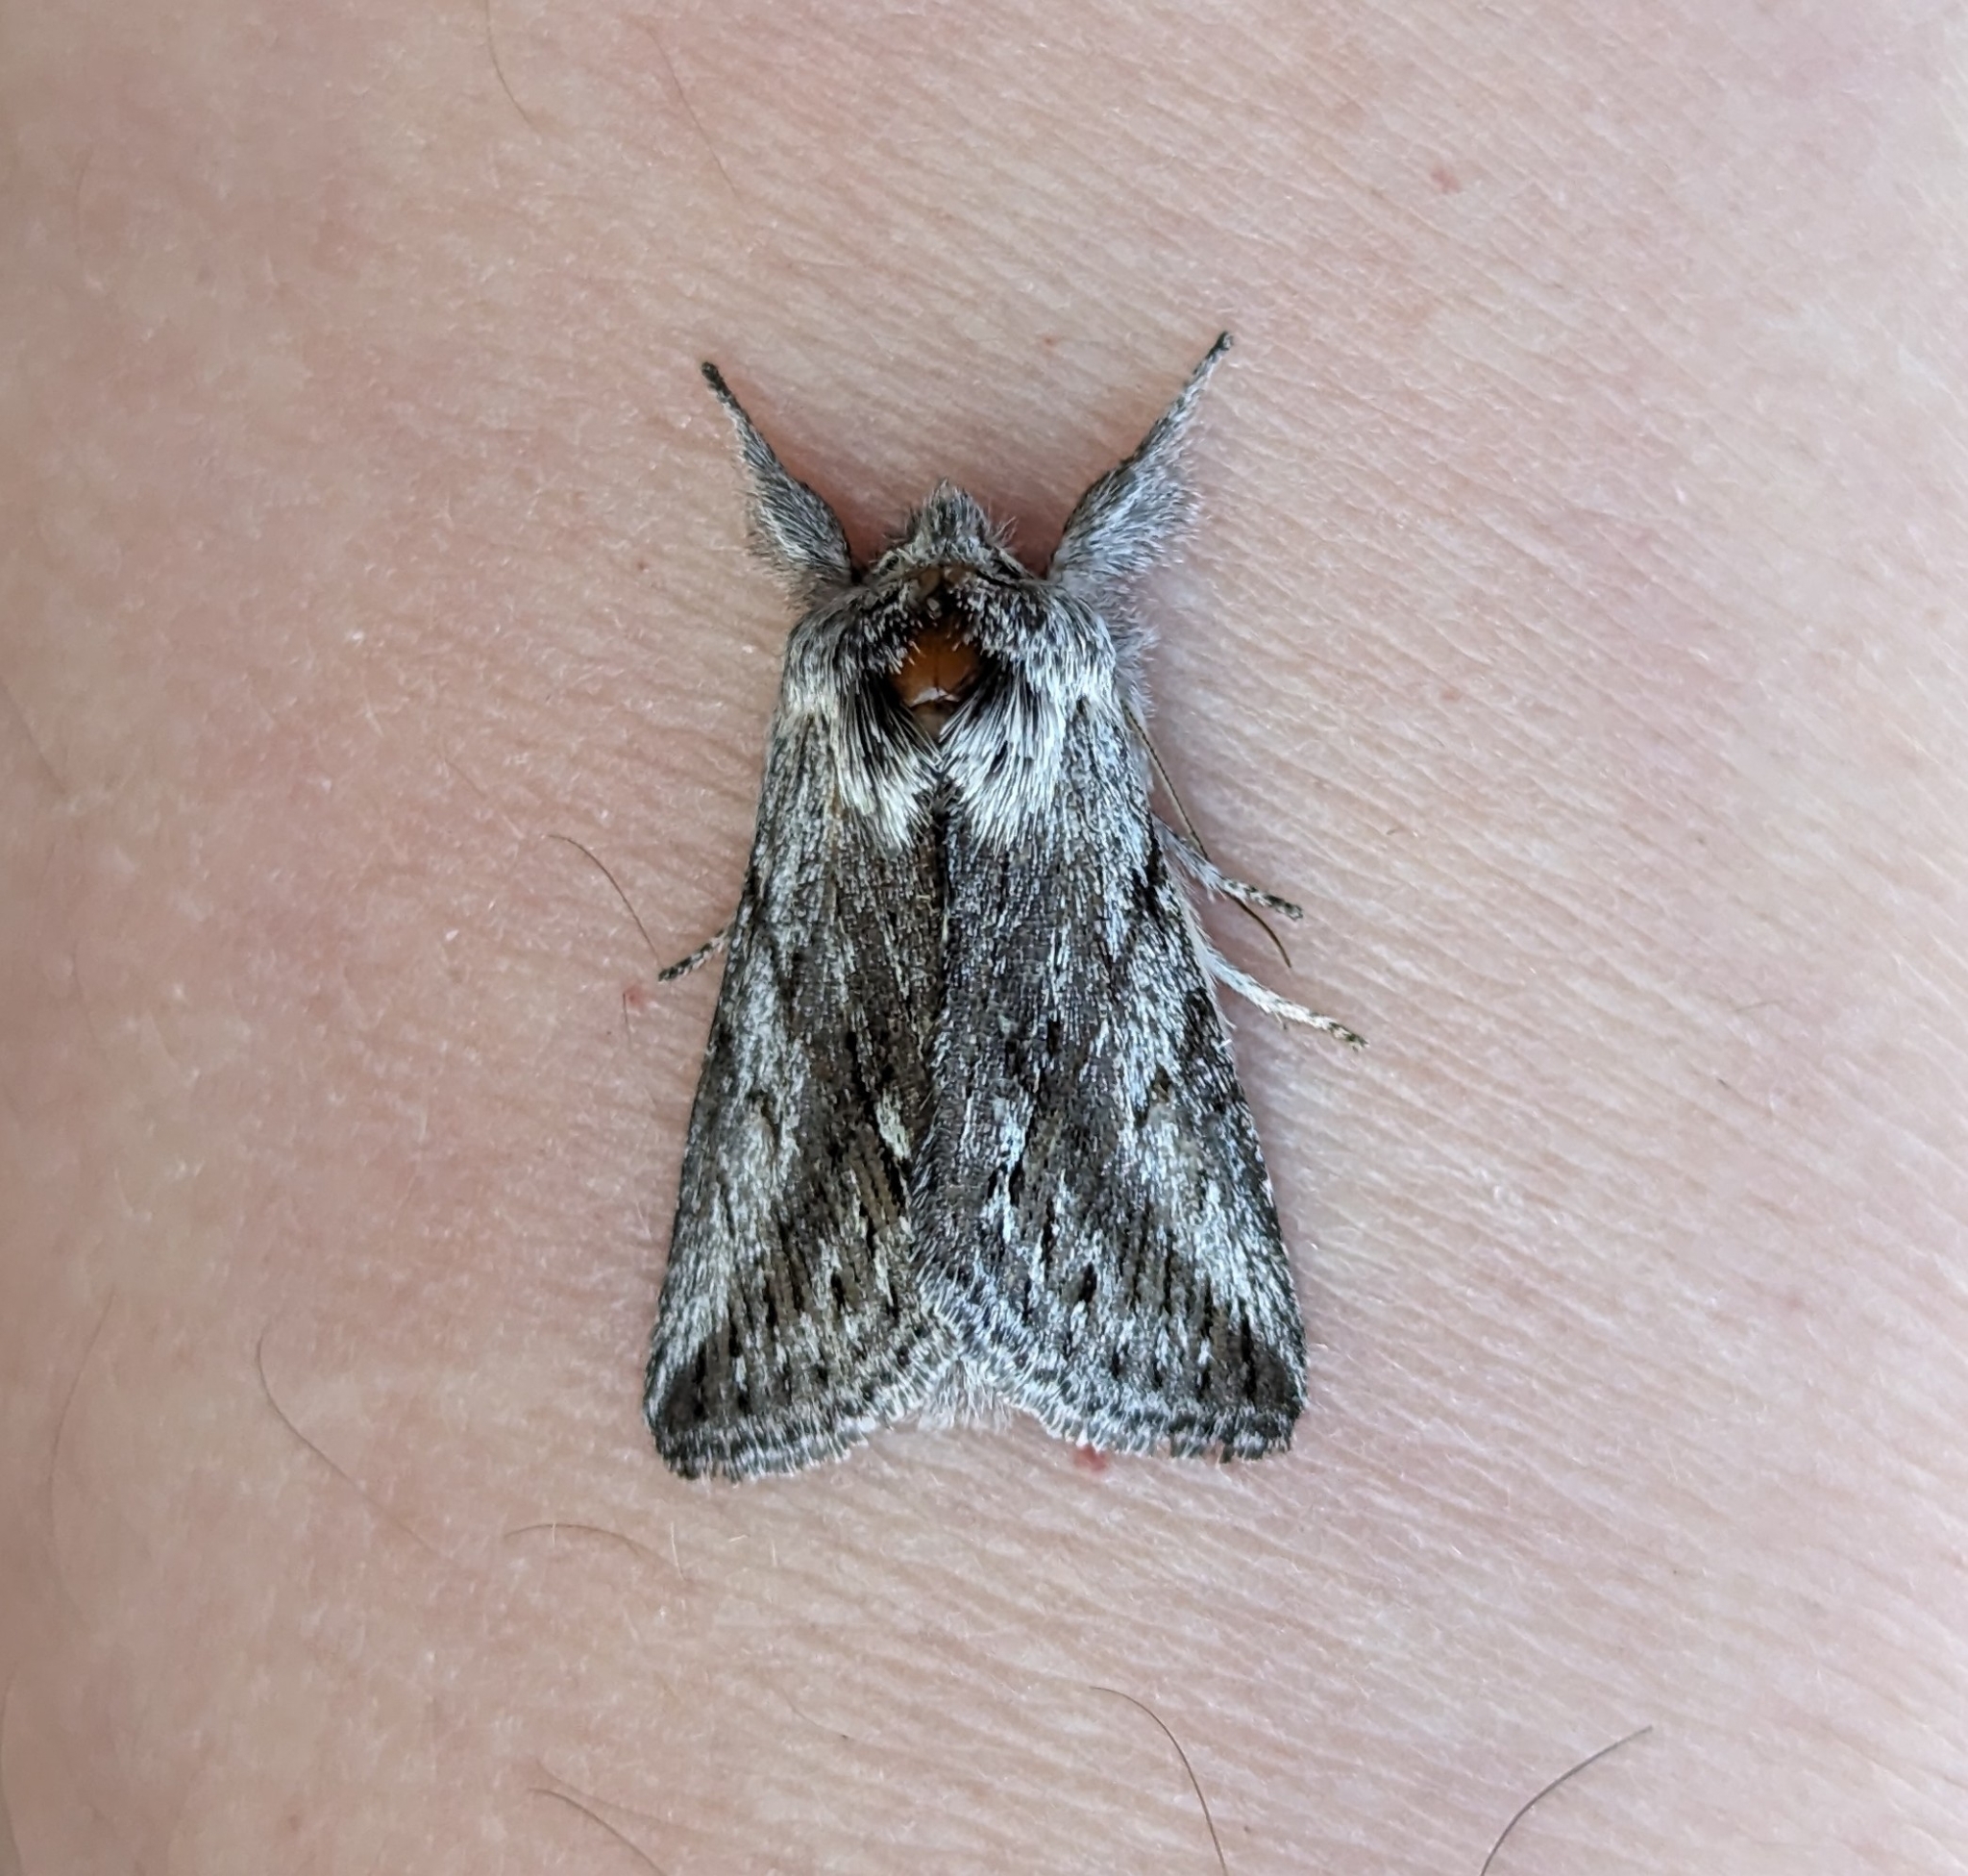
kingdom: Animalia
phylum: Arthropoda
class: Insecta
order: Lepidoptera
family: Noctuidae
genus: Pleromelloida
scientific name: Pleromelloida cinerea
